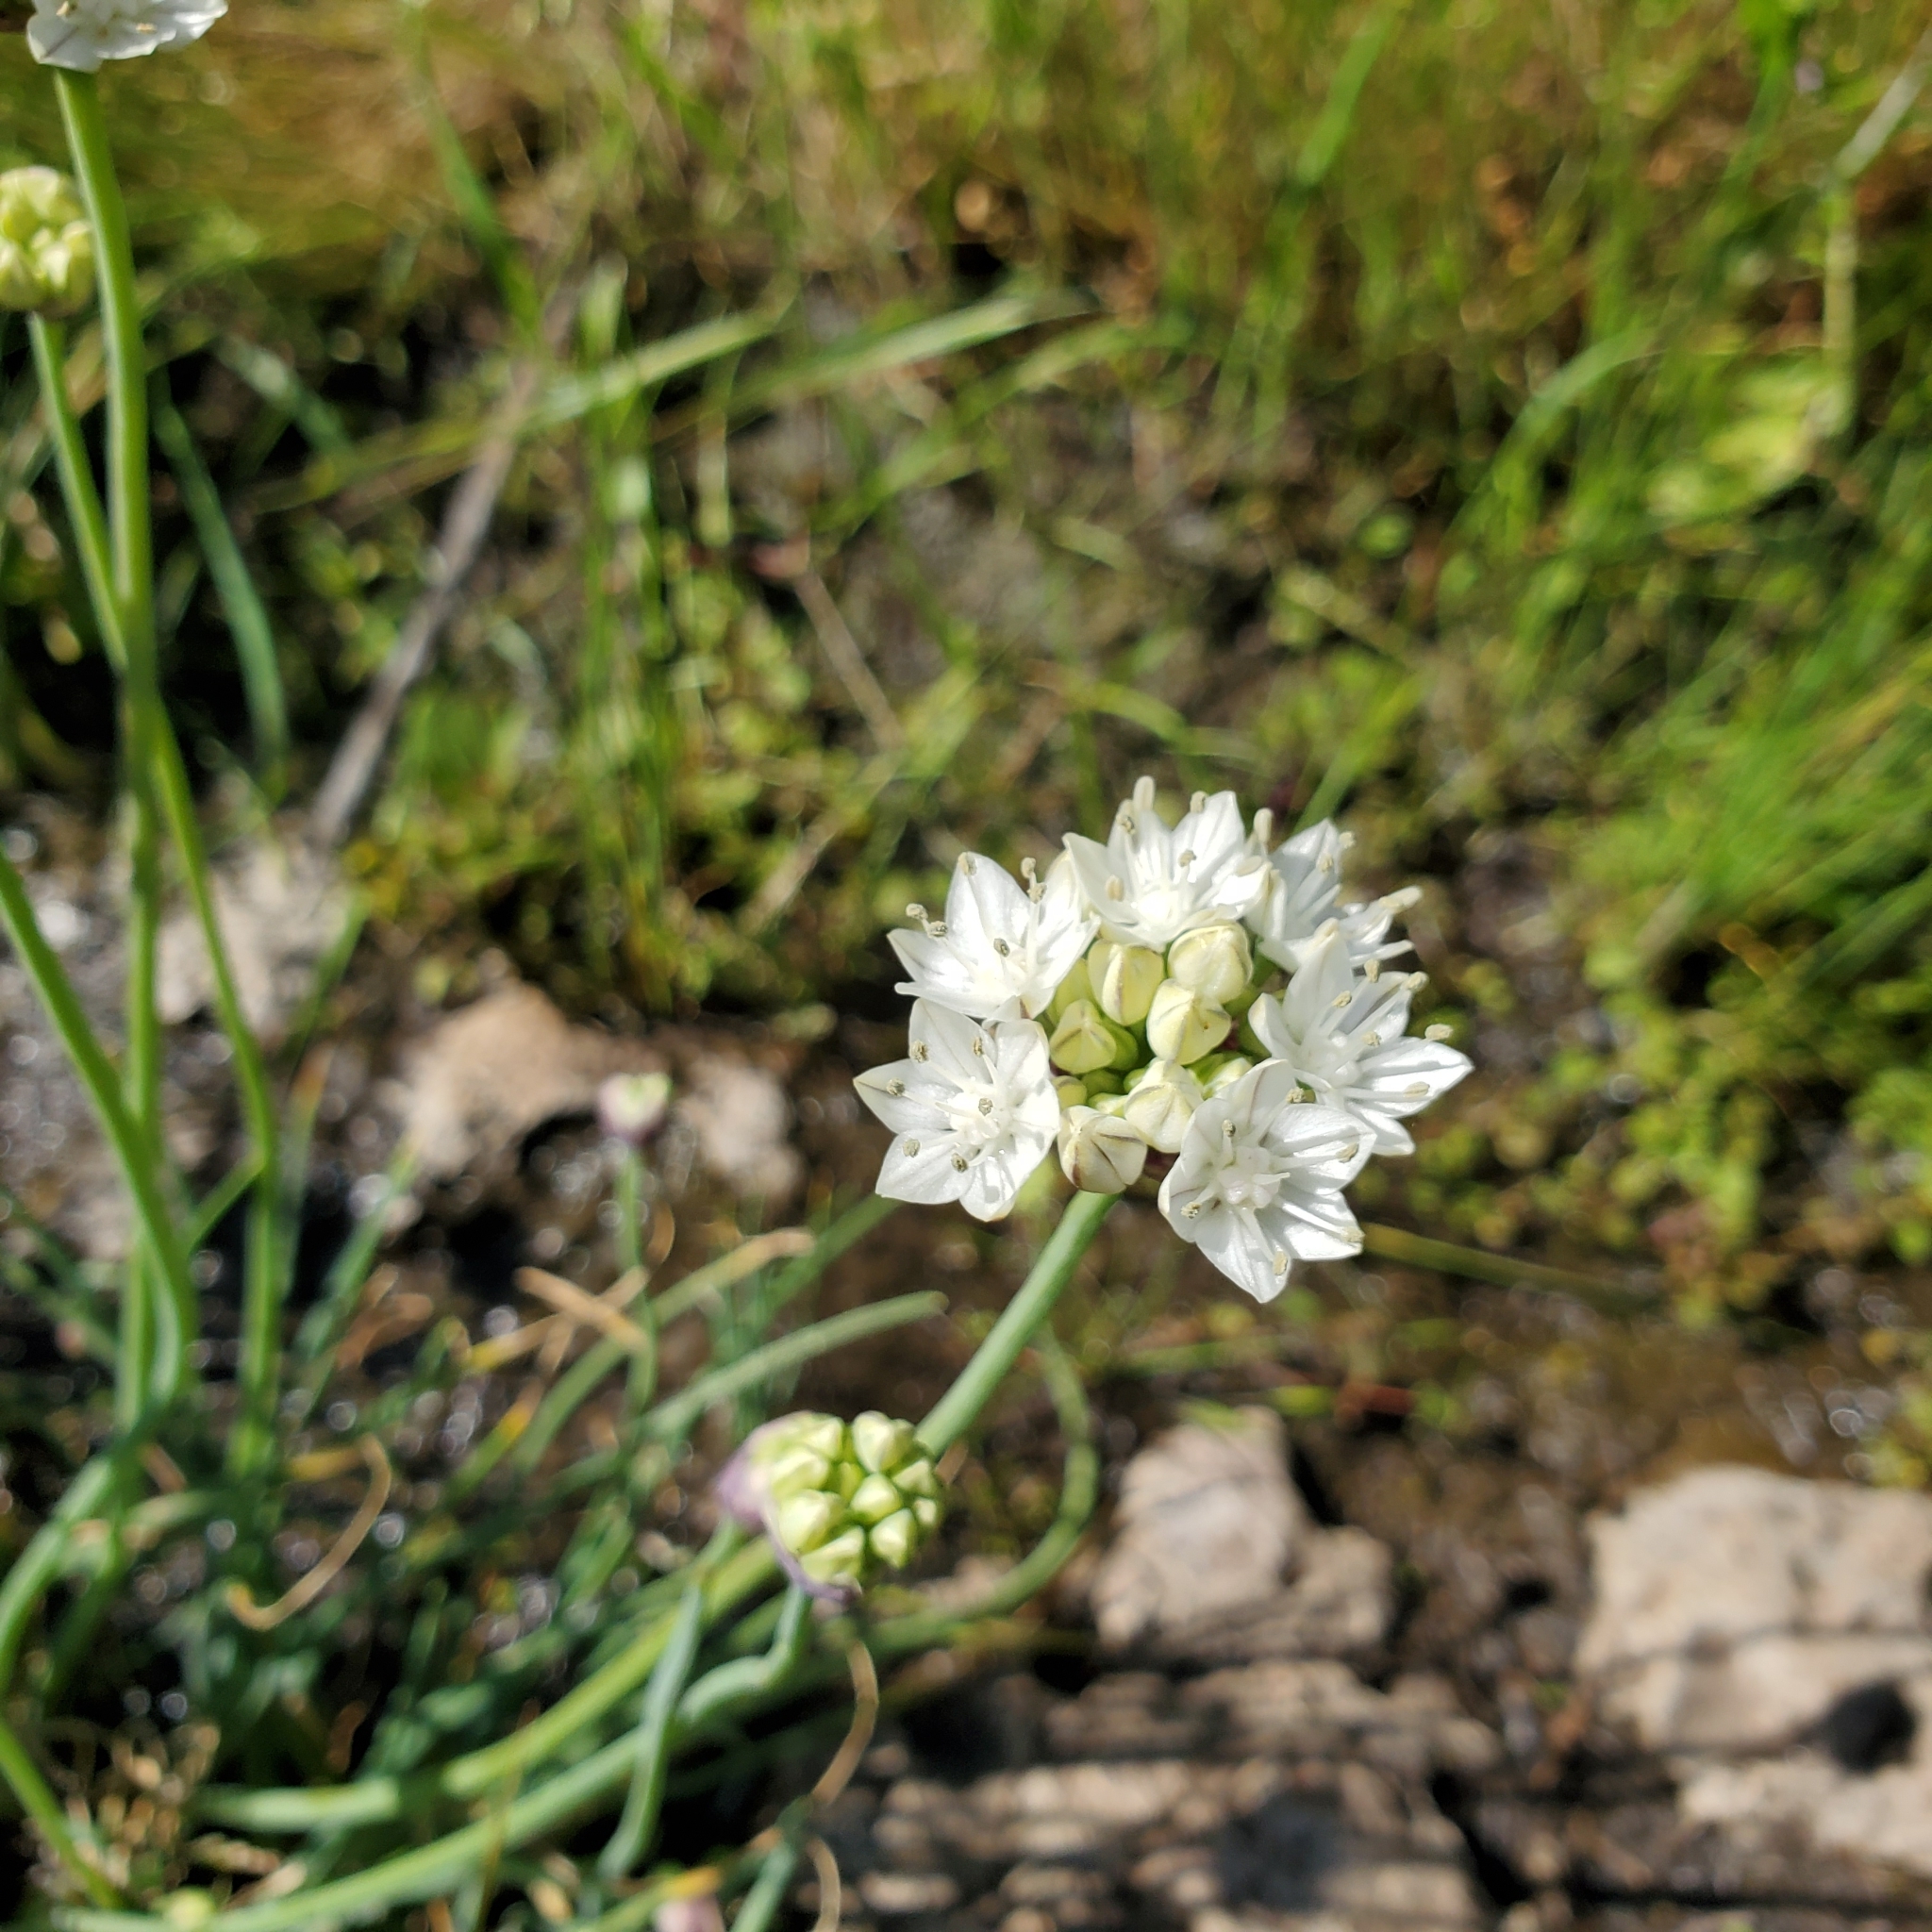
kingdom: Plantae
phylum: Tracheophyta
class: Liliopsida
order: Asparagales
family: Amaryllidaceae
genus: Allium
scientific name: Allium haematochiton
